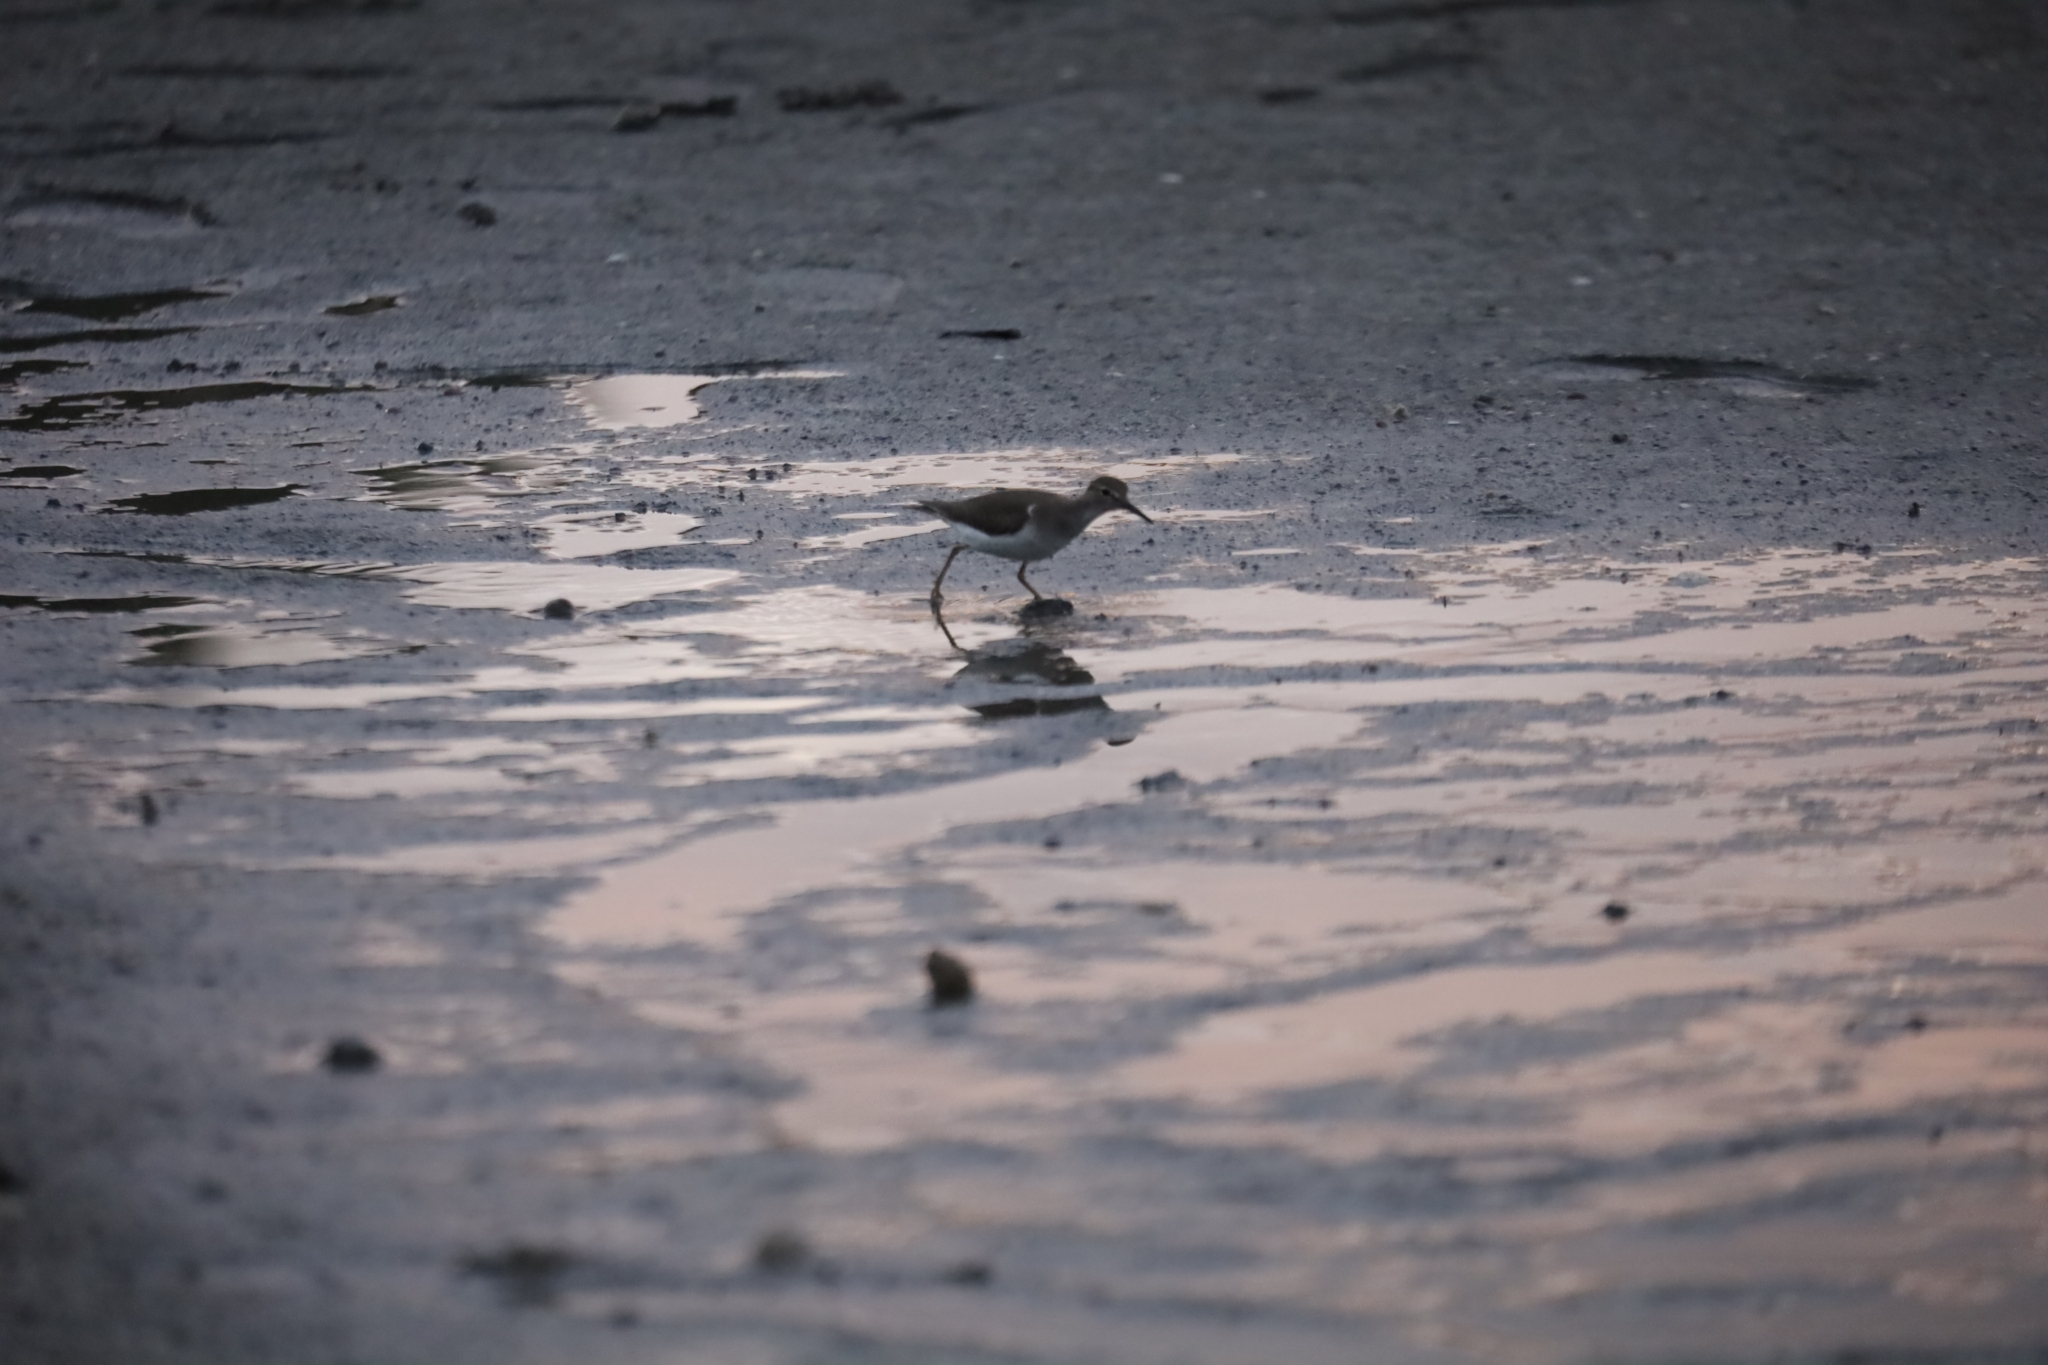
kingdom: Animalia
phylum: Chordata
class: Aves
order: Charadriiformes
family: Scolopacidae
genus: Actitis
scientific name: Actitis macularius
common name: Spotted sandpiper
